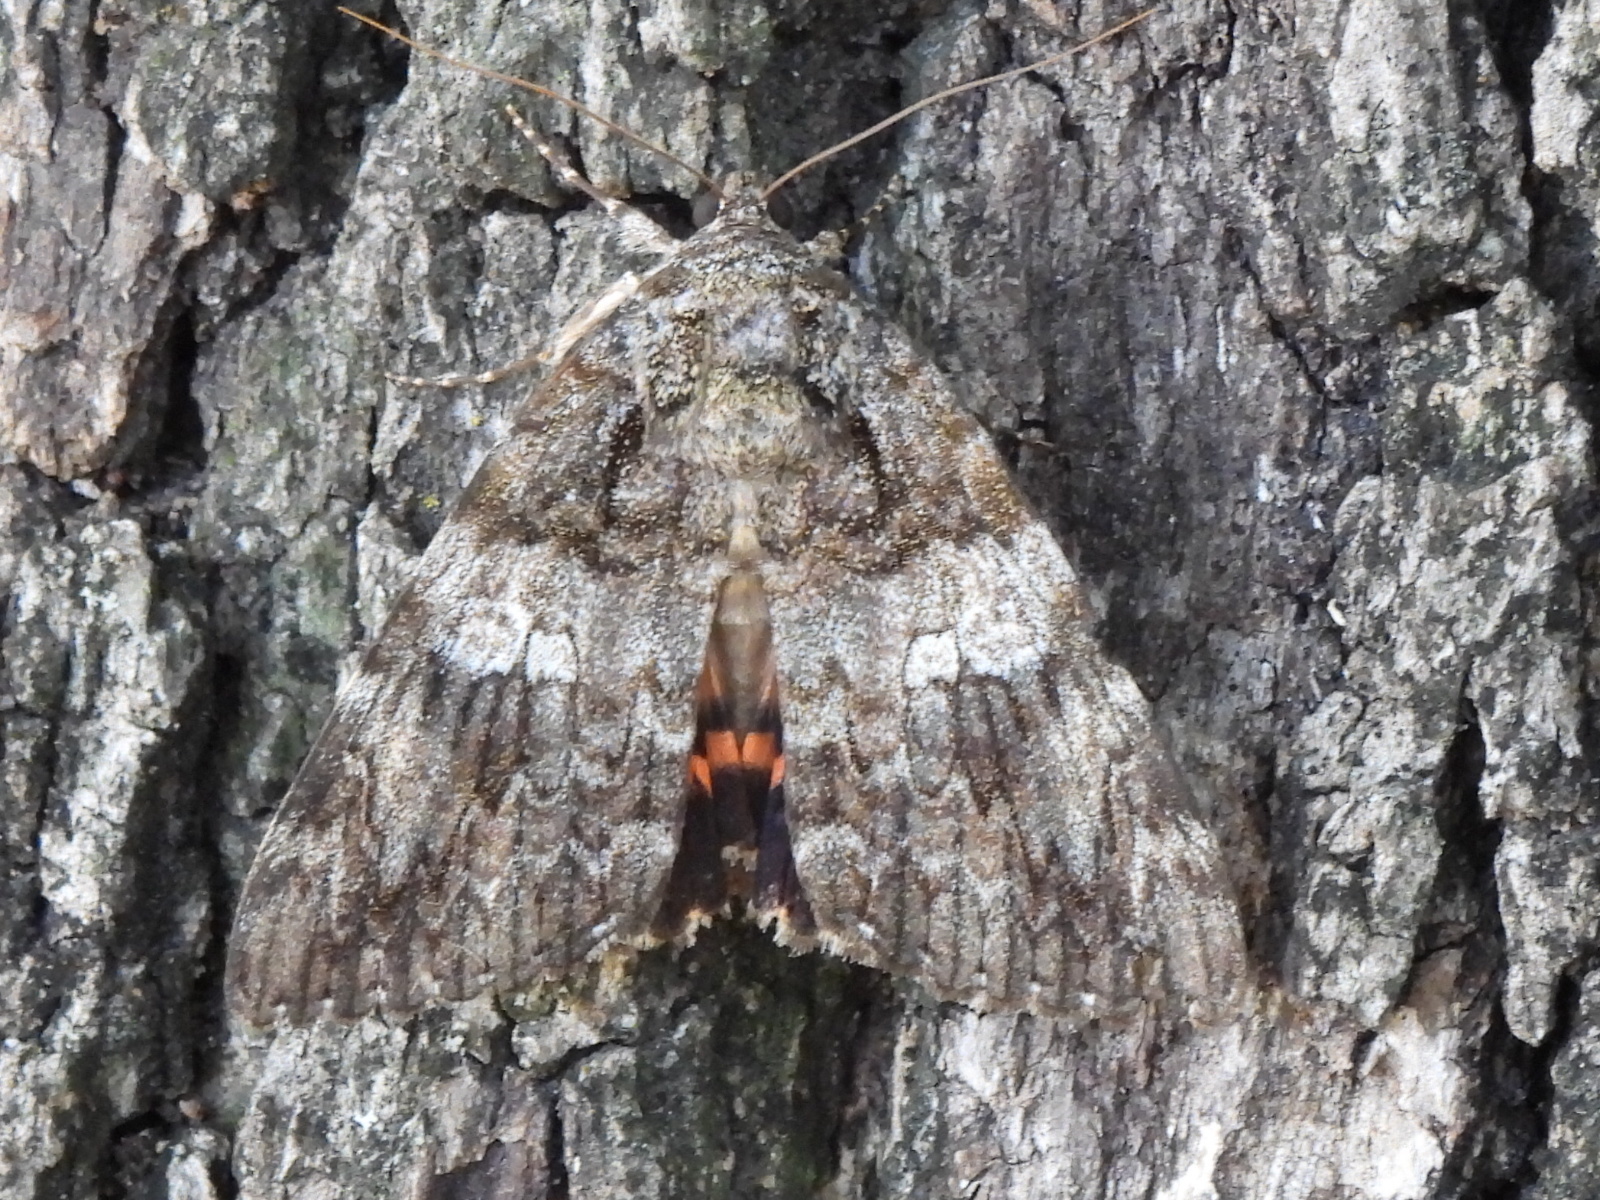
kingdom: Animalia
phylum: Arthropoda
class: Insecta
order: Lepidoptera
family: Erebidae
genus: Catocala
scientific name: Catocala ilia
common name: Ilia underwing
